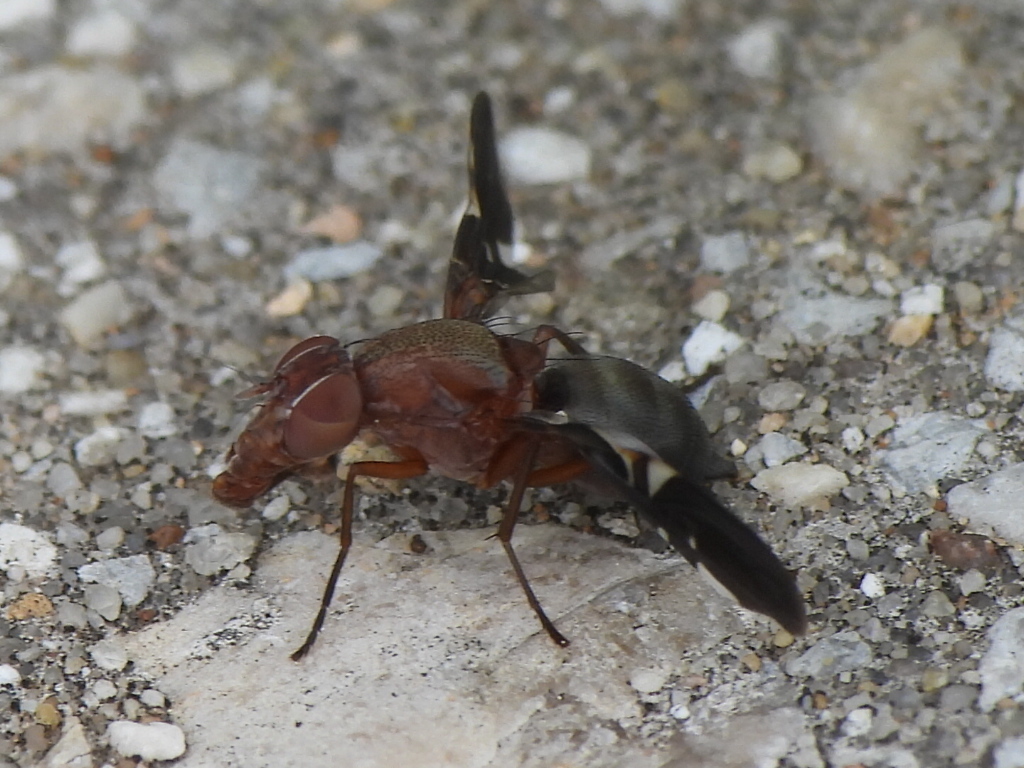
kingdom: Animalia
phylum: Arthropoda
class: Insecta
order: Diptera
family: Ulidiidae
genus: Delphinia
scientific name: Delphinia picta
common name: Common picture-winged fly
